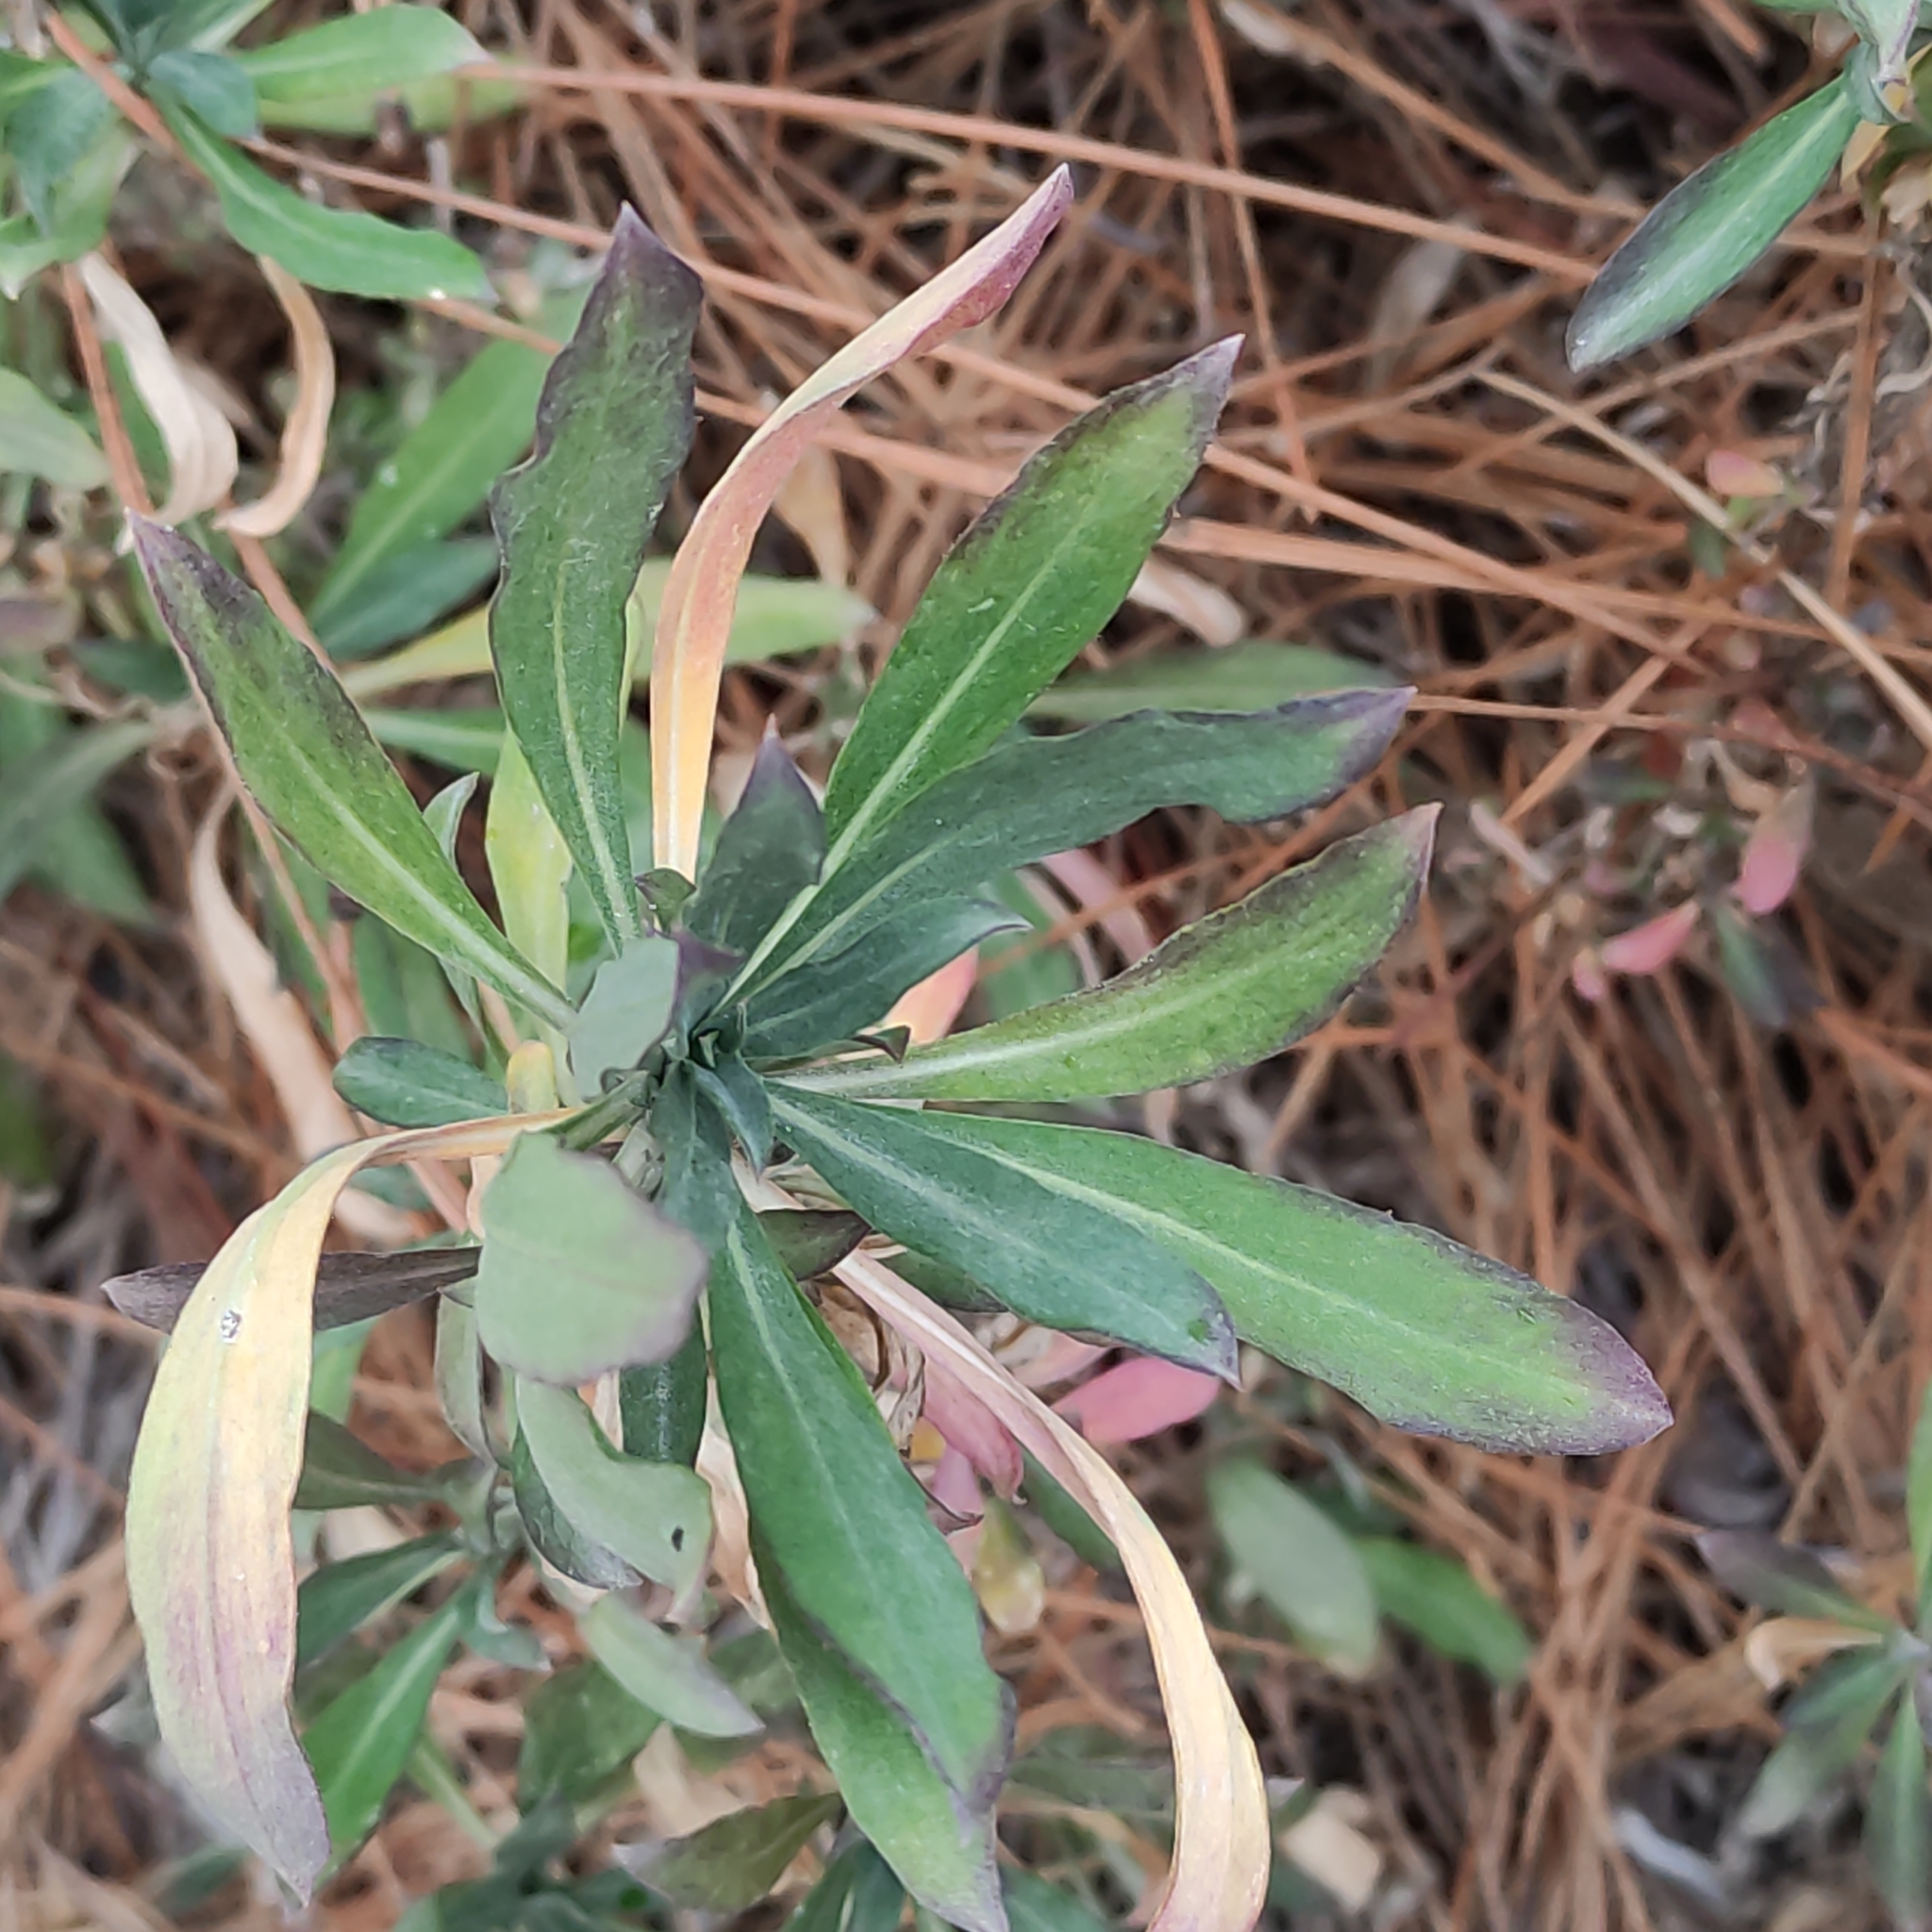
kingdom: Plantae
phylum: Tracheophyta
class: Magnoliopsida
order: Malpighiales
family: Euphorbiaceae
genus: Euphorbia
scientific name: Euphorbia characias
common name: Mediterranean spurge
